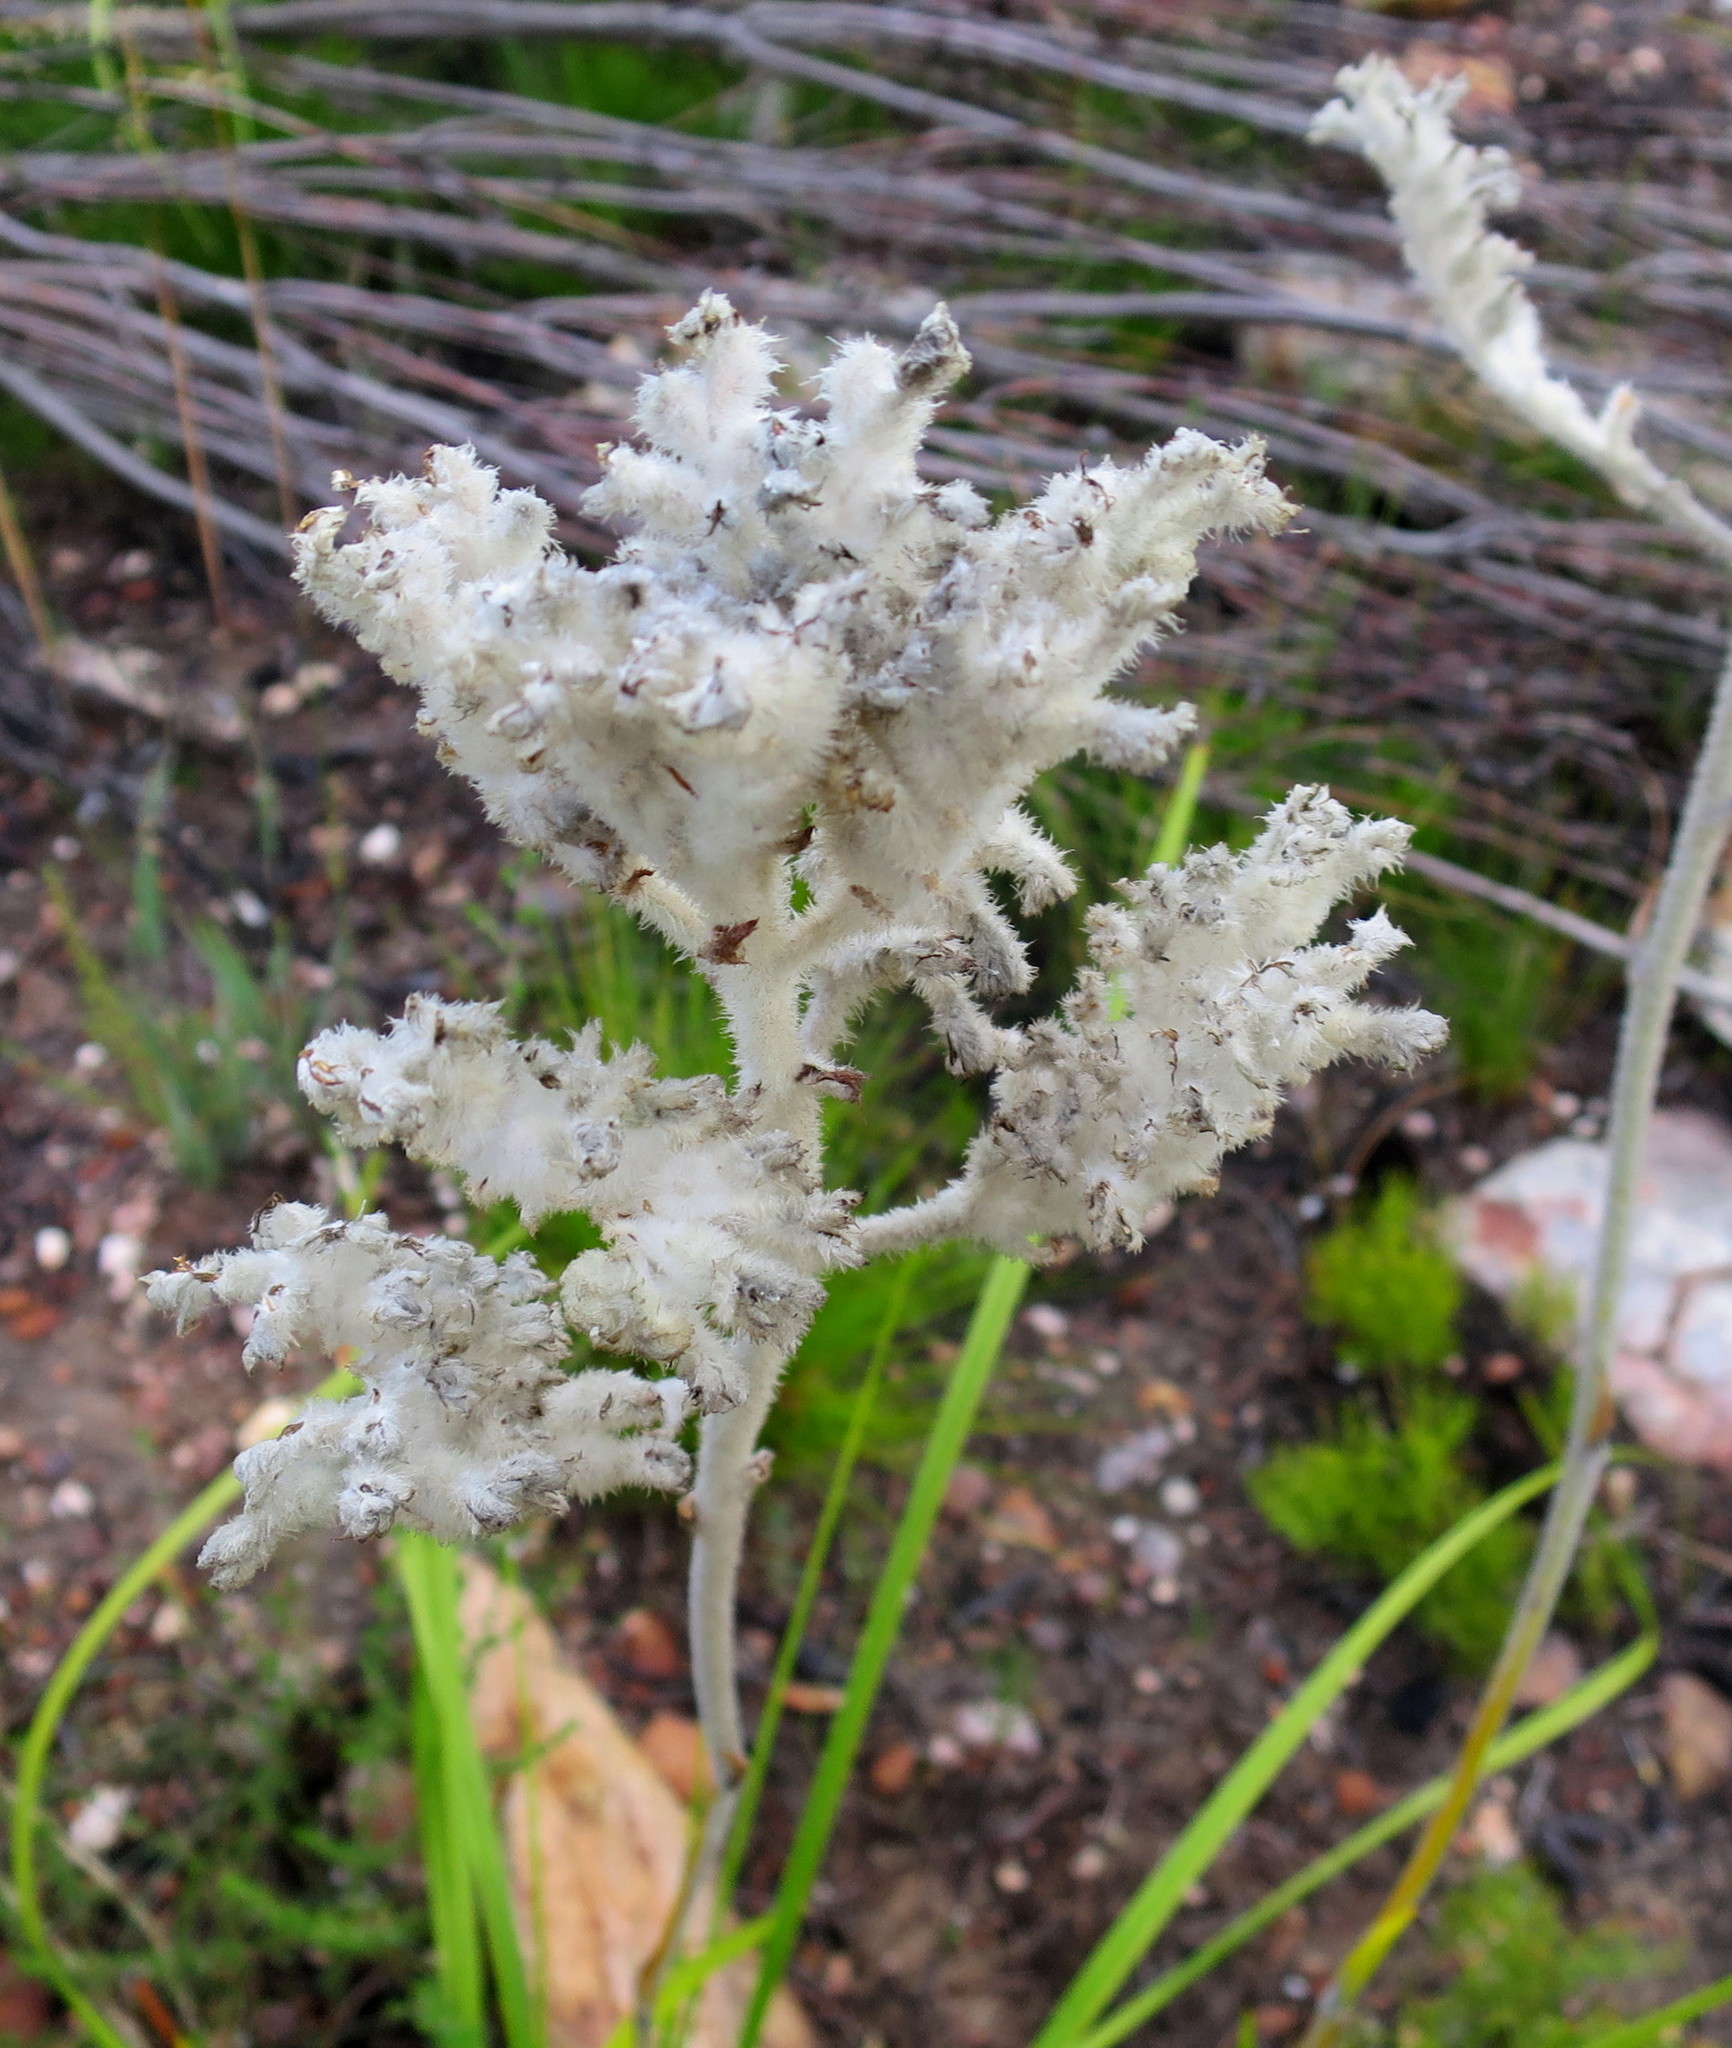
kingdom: Plantae
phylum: Tracheophyta
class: Liliopsida
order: Asparagales
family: Lanariaceae
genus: Lanaria
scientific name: Lanaria lanata
